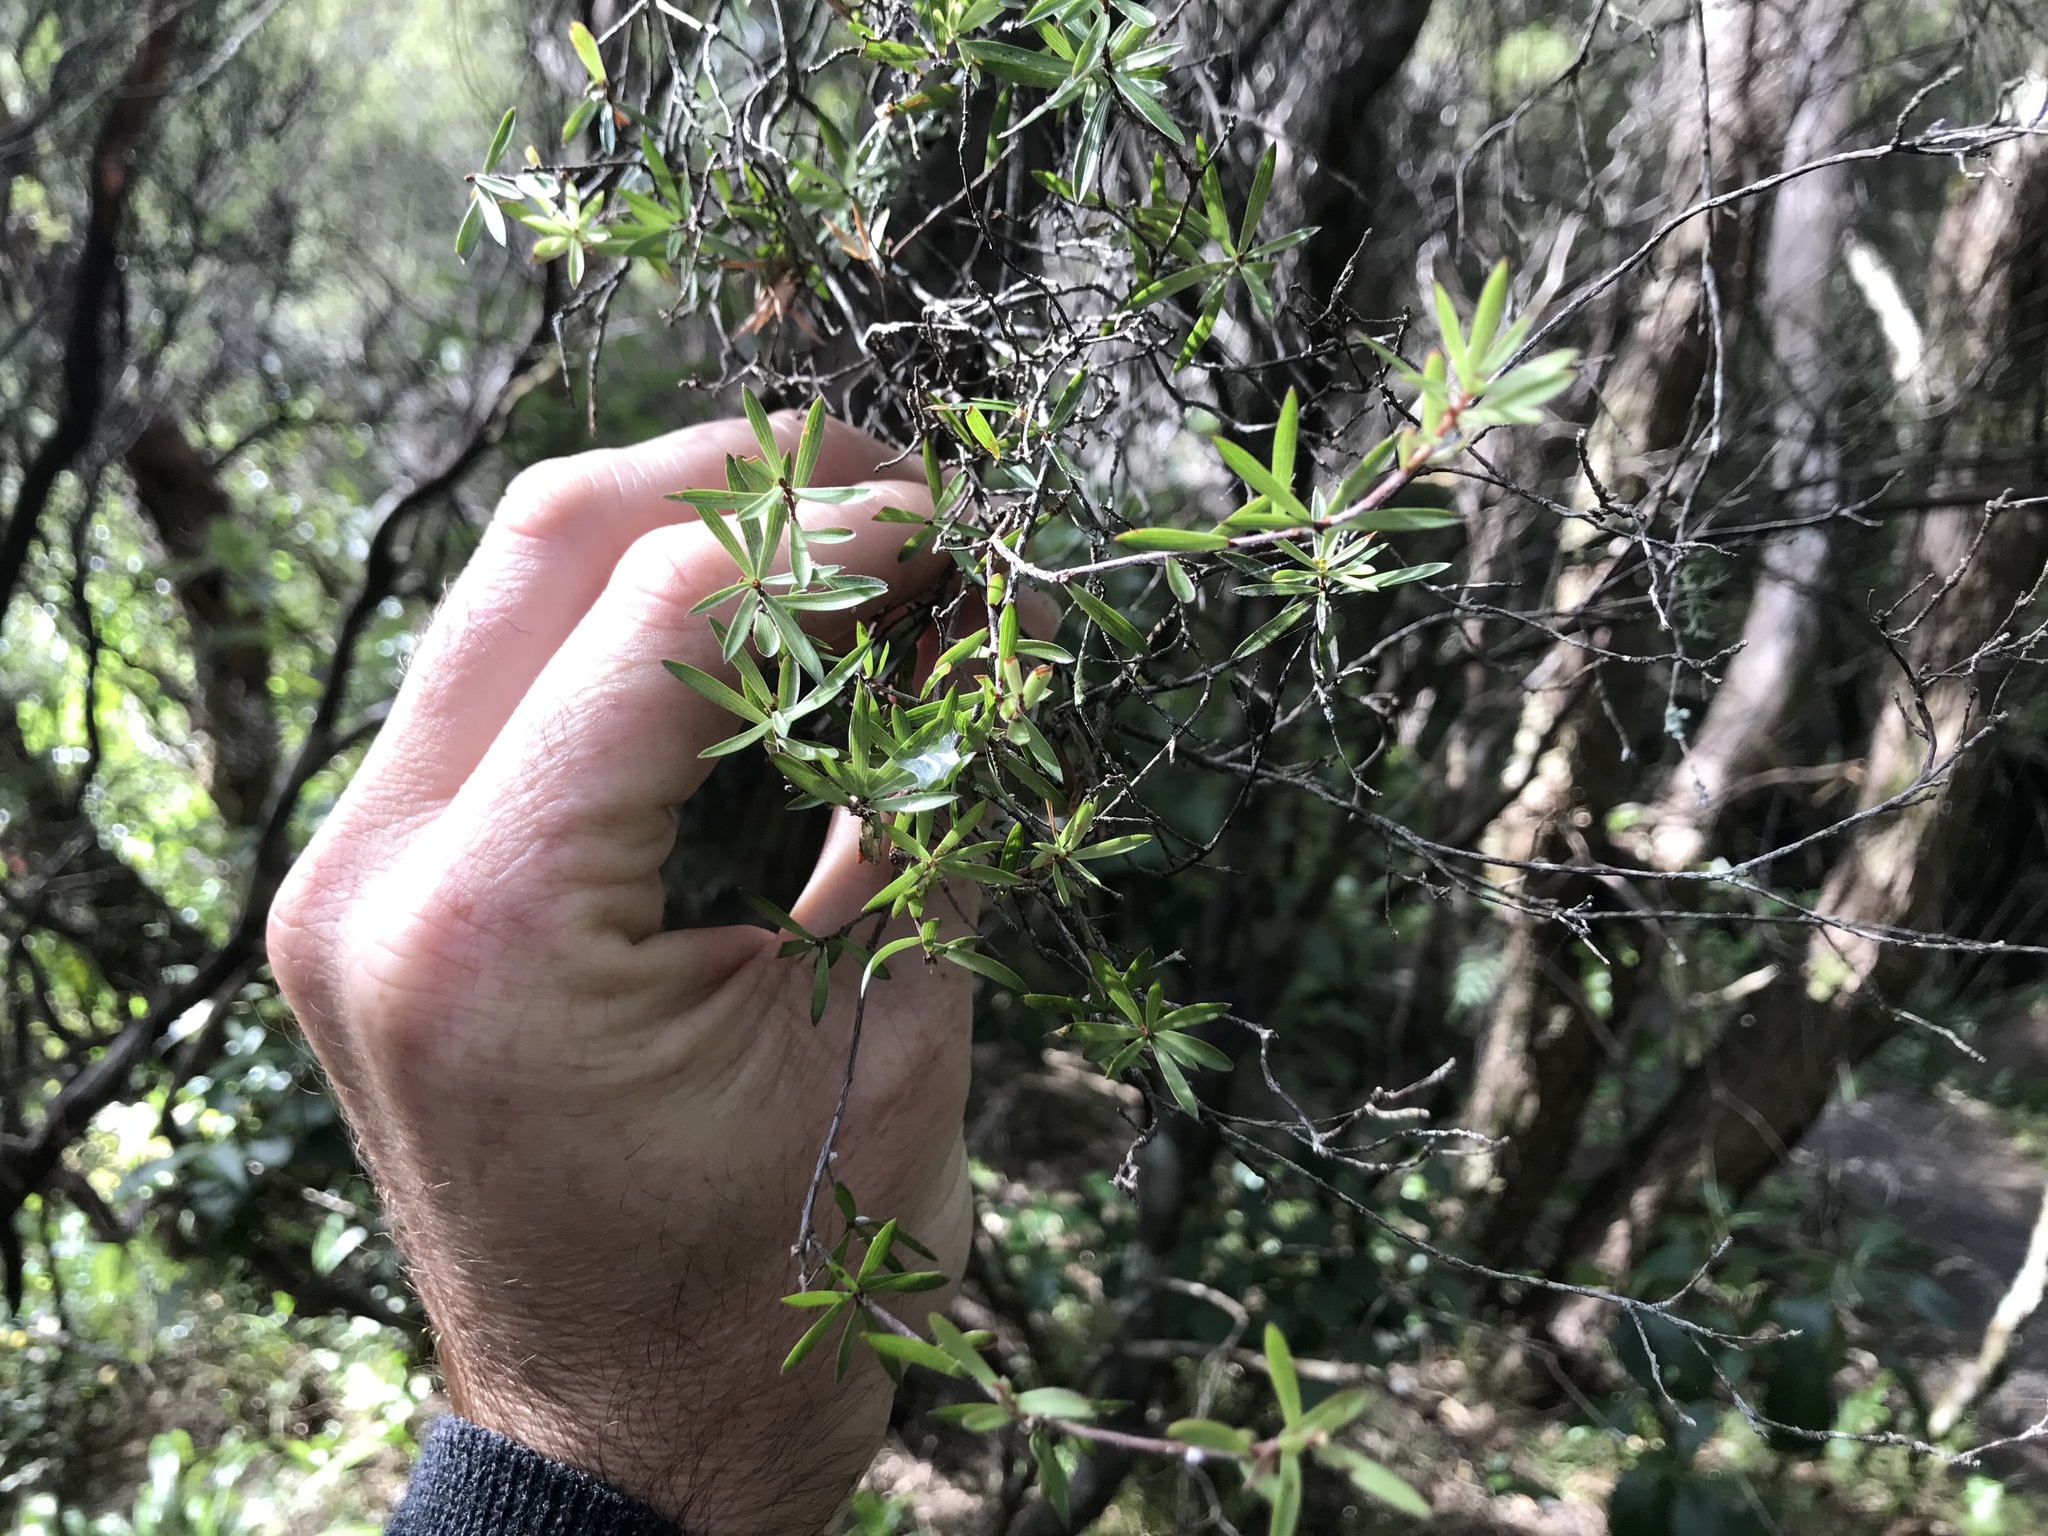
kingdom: Plantae
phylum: Tracheophyta
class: Magnoliopsida
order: Ericales
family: Ericaceae
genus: Leucopogon
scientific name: Leucopogon fasciculatus
